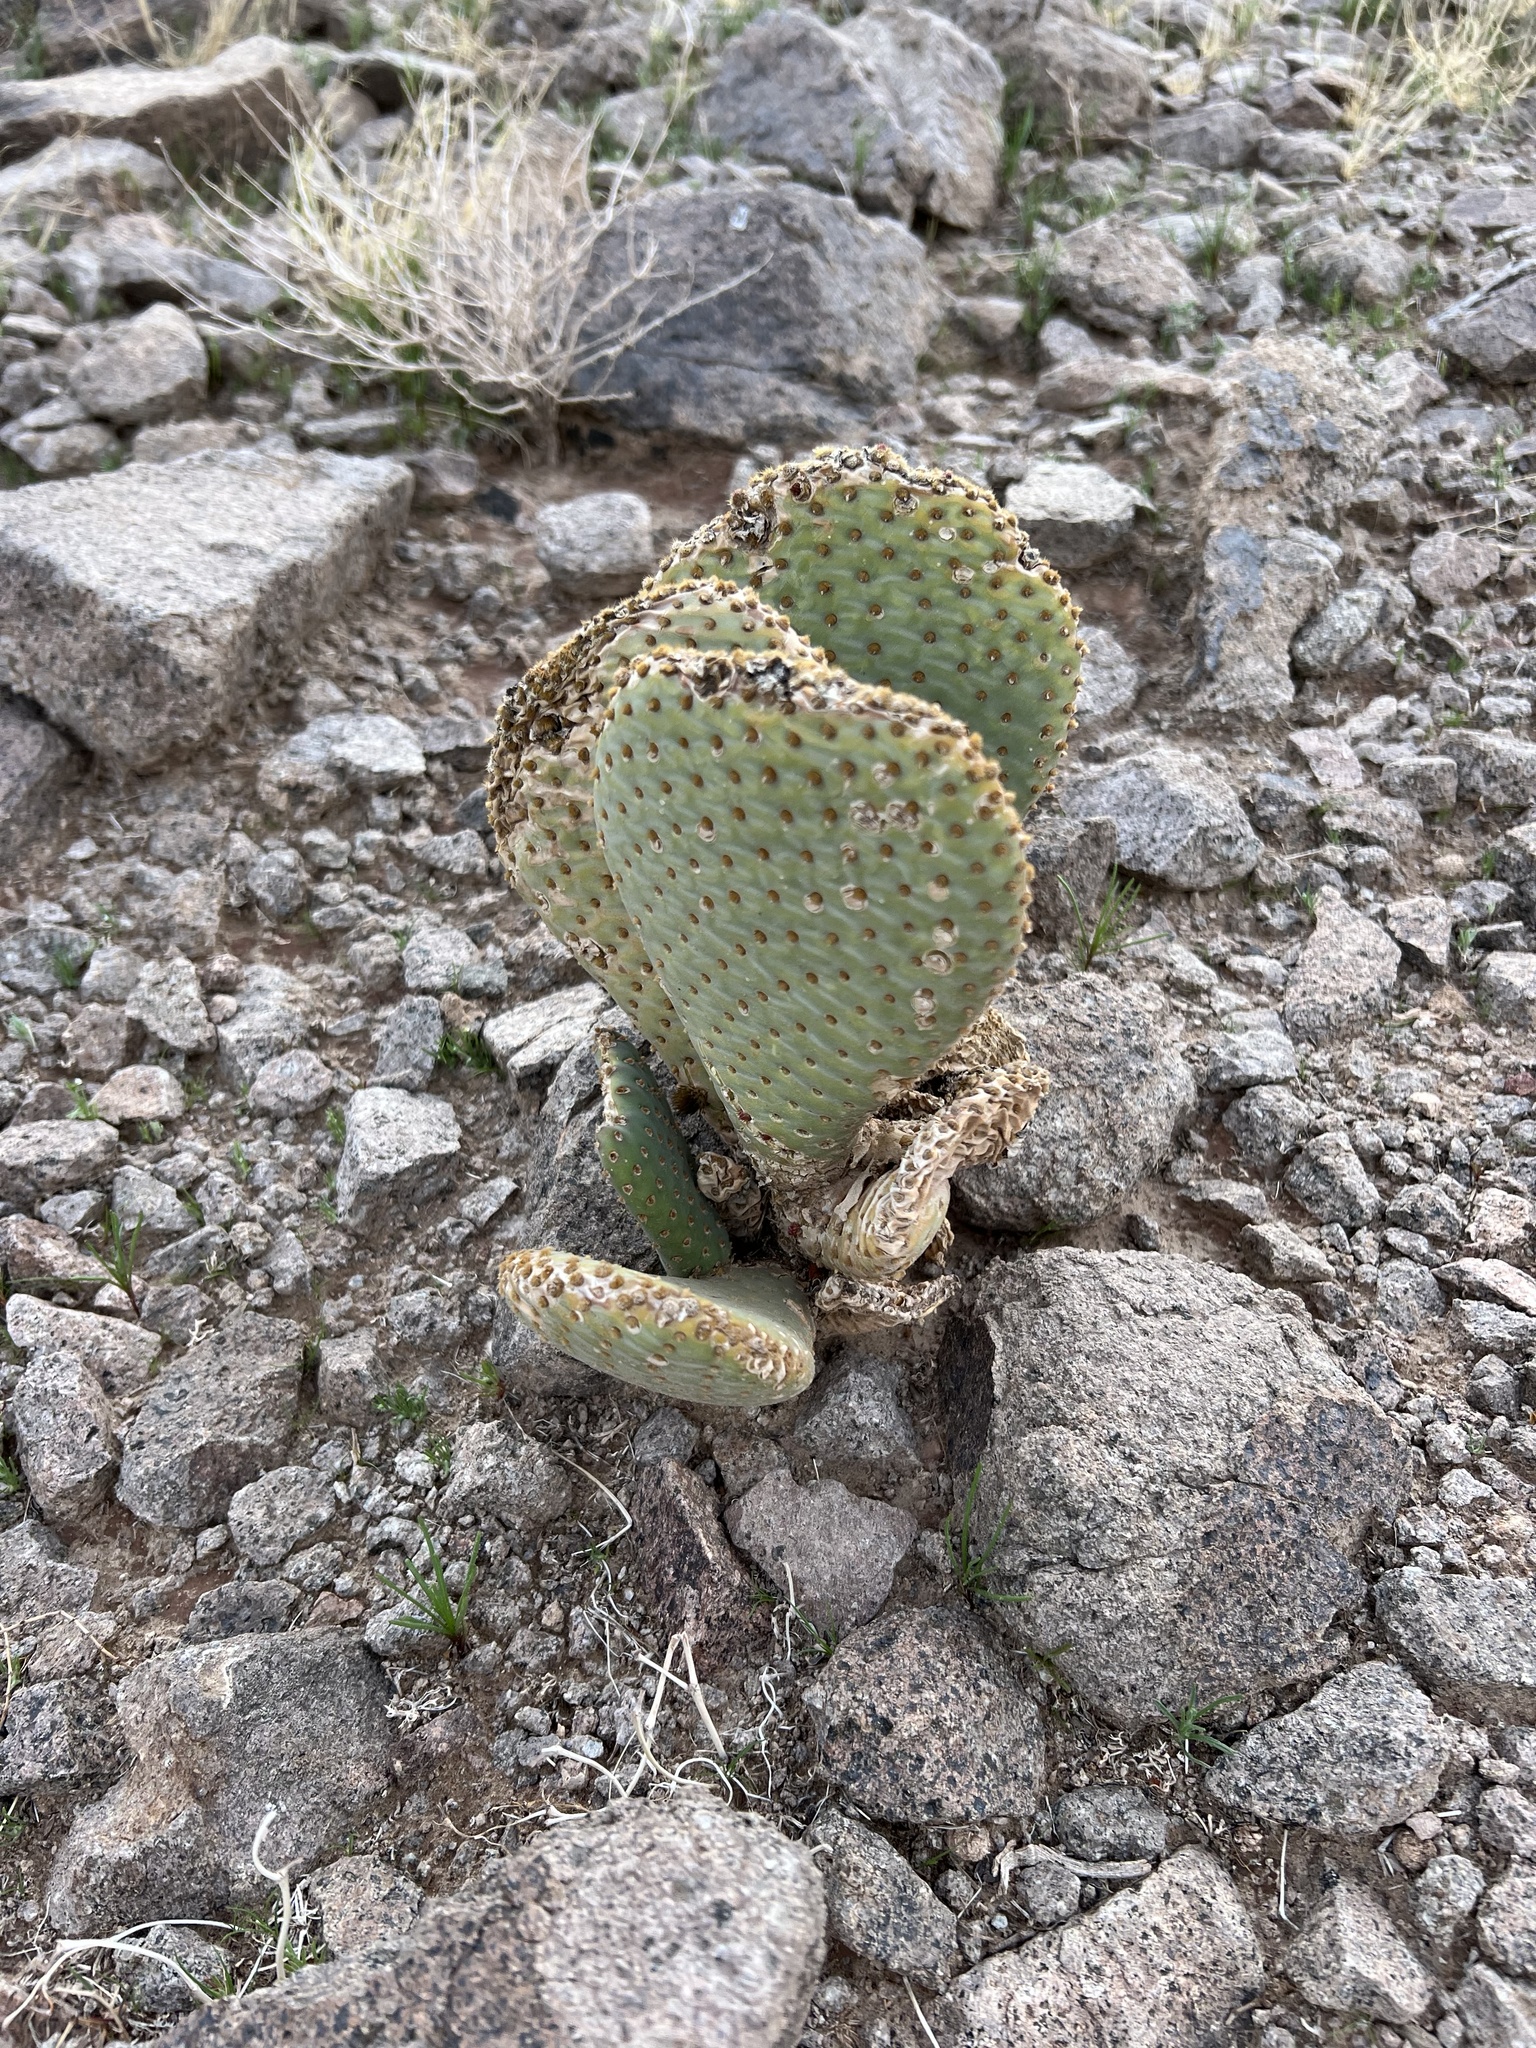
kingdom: Plantae
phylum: Tracheophyta
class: Magnoliopsida
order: Caryophyllales
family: Cactaceae
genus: Opuntia
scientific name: Opuntia basilaris
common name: Beavertail prickly-pear
